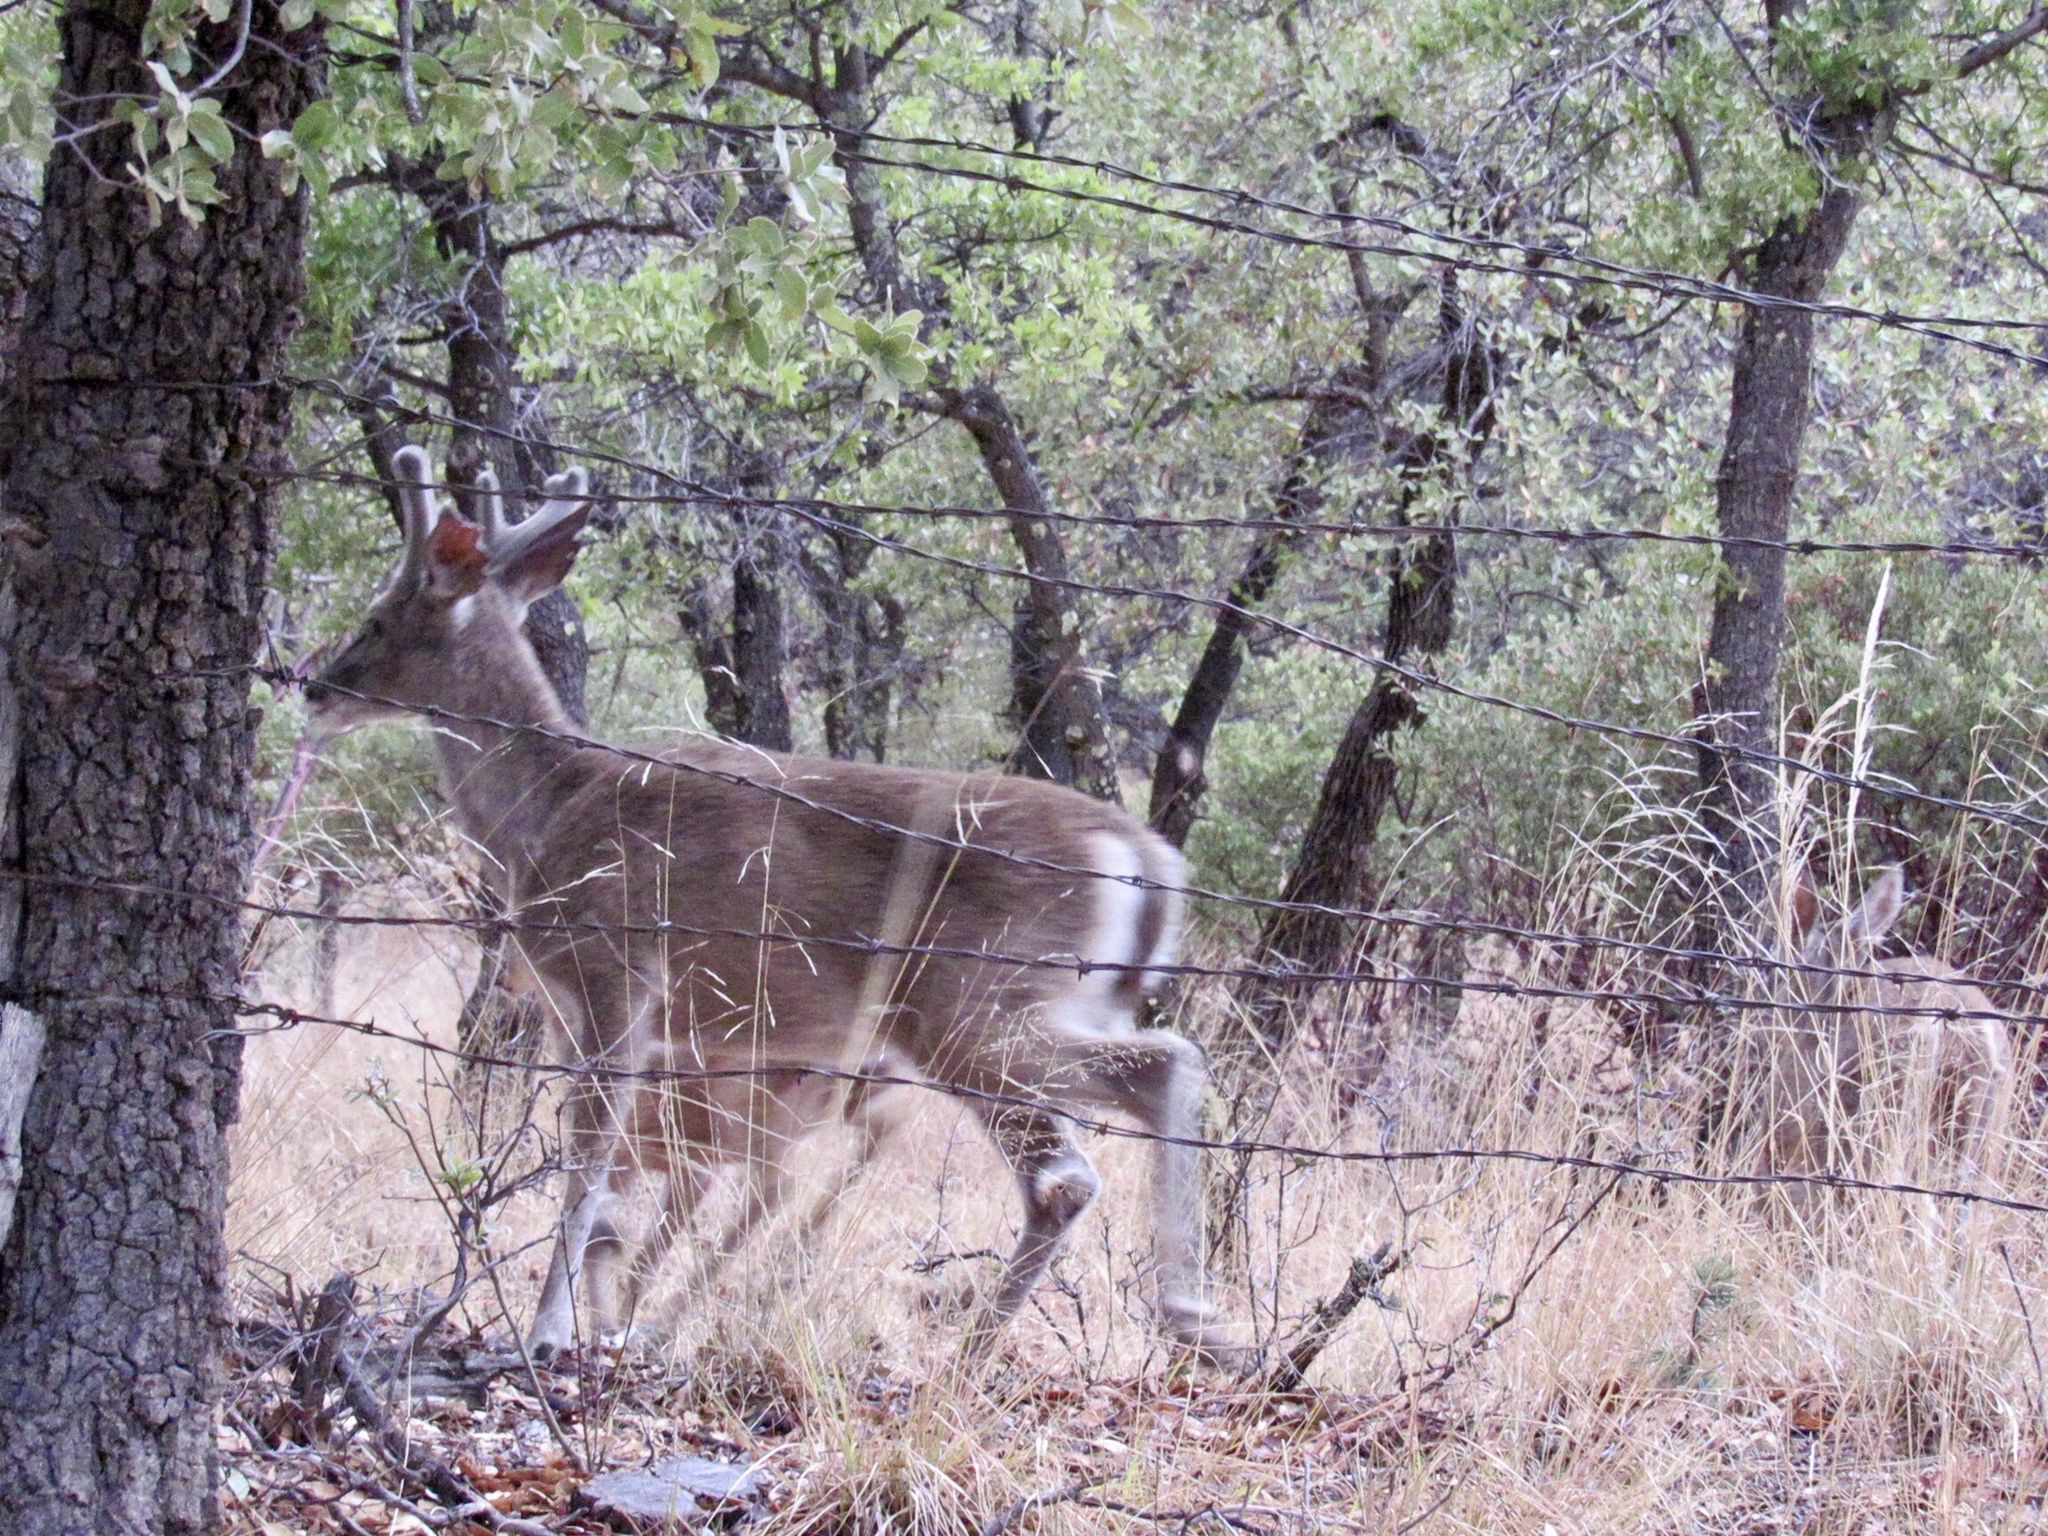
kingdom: Animalia
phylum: Chordata
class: Mammalia
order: Artiodactyla
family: Cervidae
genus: Odocoileus
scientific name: Odocoileus virginianus
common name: White-tailed deer
